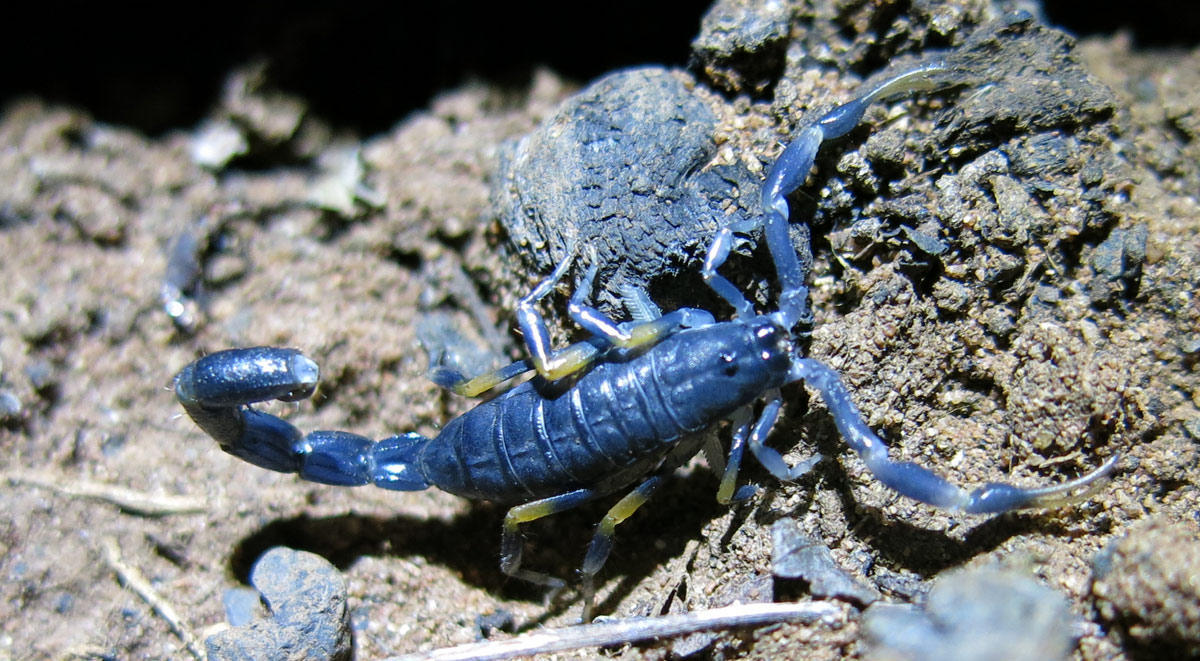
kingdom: Animalia
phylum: Arthropoda
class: Arachnida
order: Scorpiones
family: Buthidae
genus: Uroplectes
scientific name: Uroplectes flavoviridis
